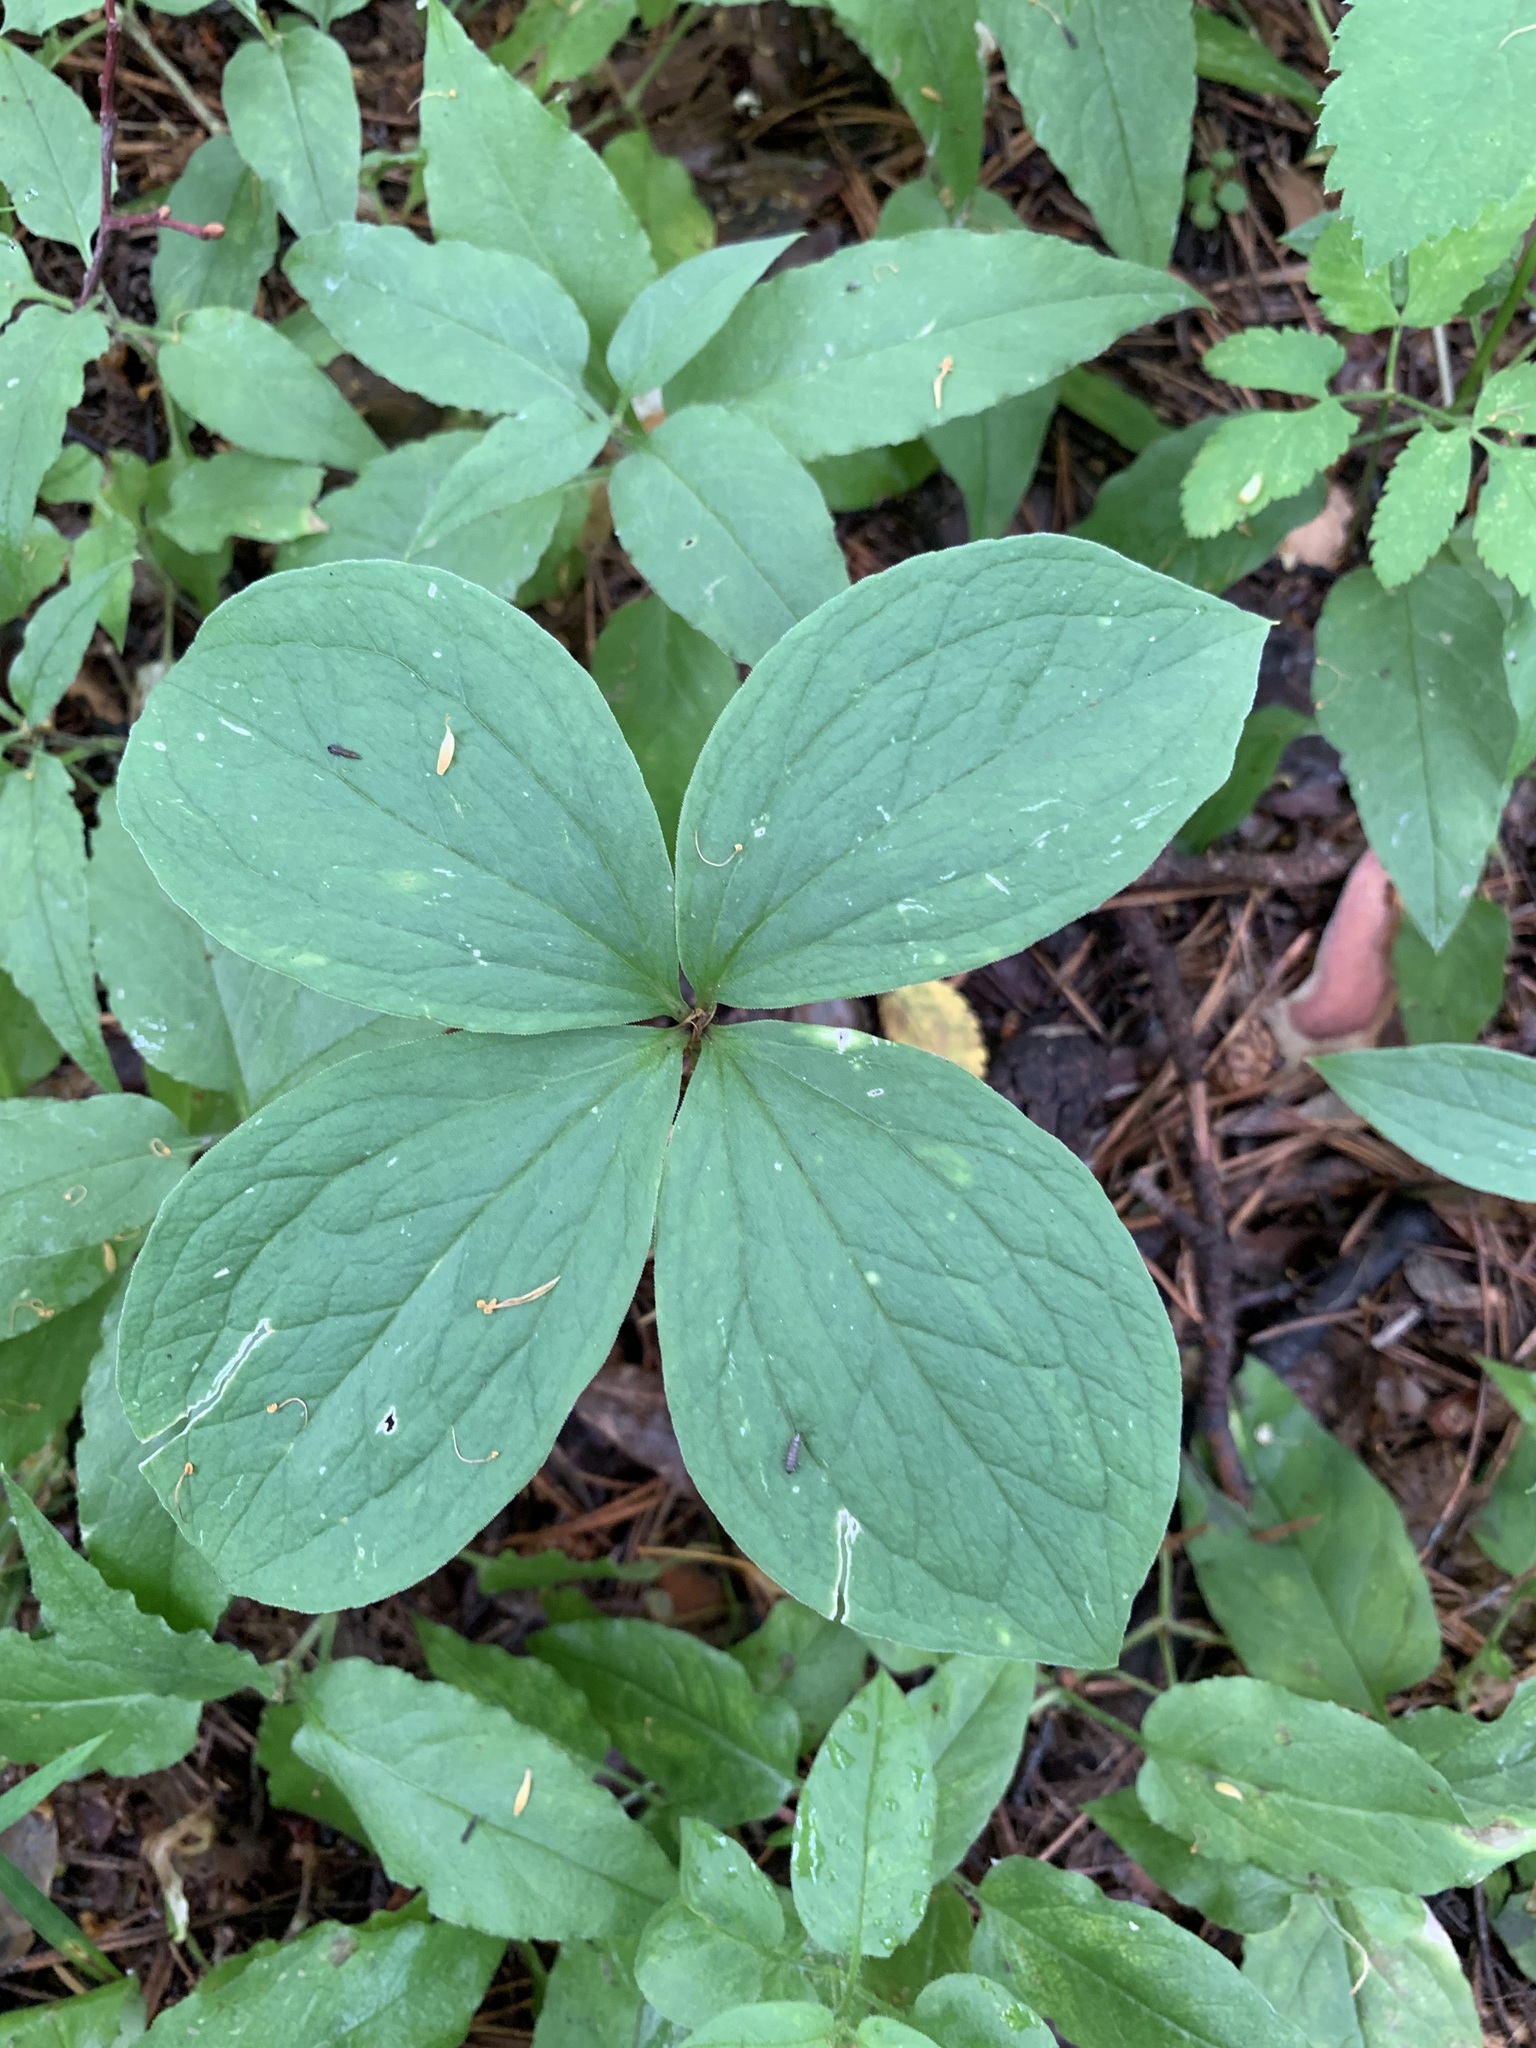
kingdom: Plantae
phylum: Tracheophyta
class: Liliopsida
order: Liliales
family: Melanthiaceae
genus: Paris
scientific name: Paris quadrifolia
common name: Herb-paris
